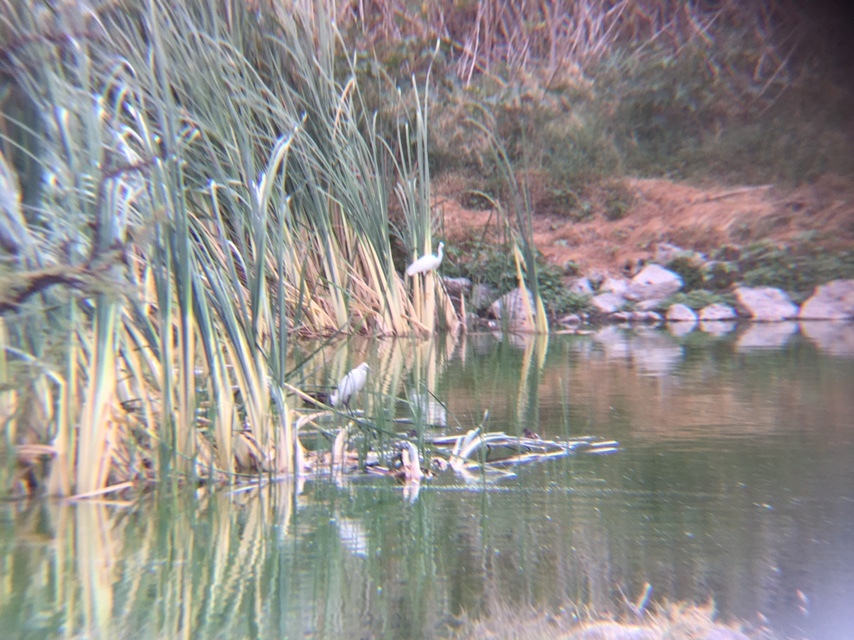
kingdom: Animalia
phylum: Chordata
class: Aves
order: Pelecaniformes
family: Ardeidae
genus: Egretta
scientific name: Egretta thula
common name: Snowy egret
